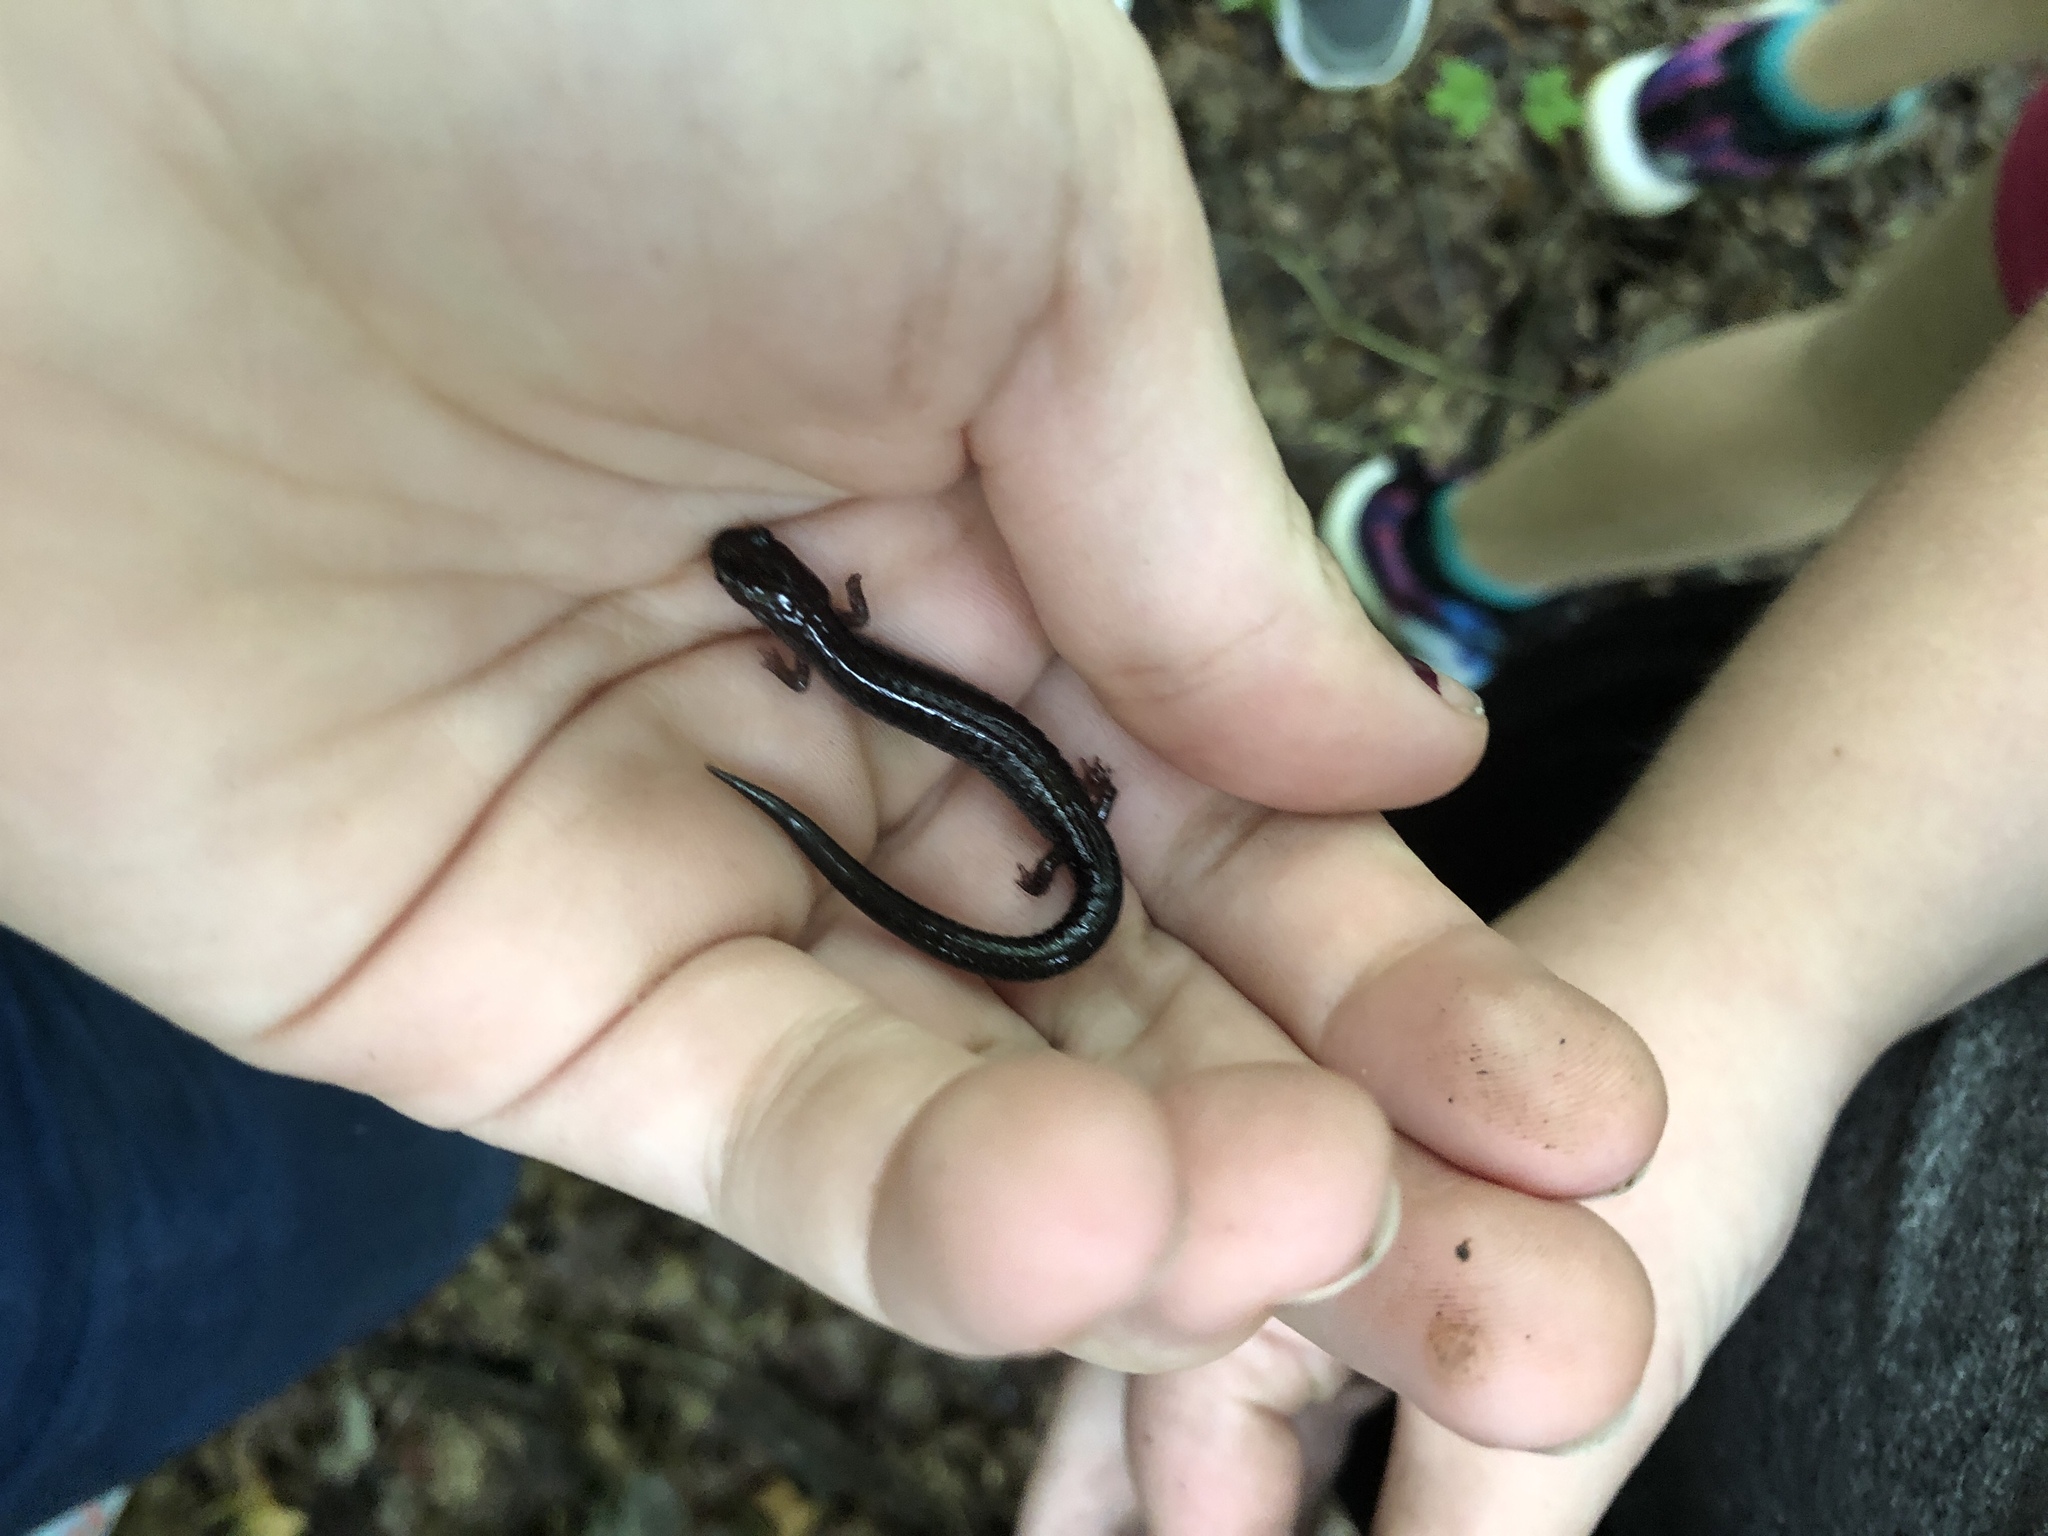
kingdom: Animalia
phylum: Chordata
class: Amphibia
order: Caudata
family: Plethodontidae
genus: Plethodon
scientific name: Plethodon cinereus
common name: Redback salamander
